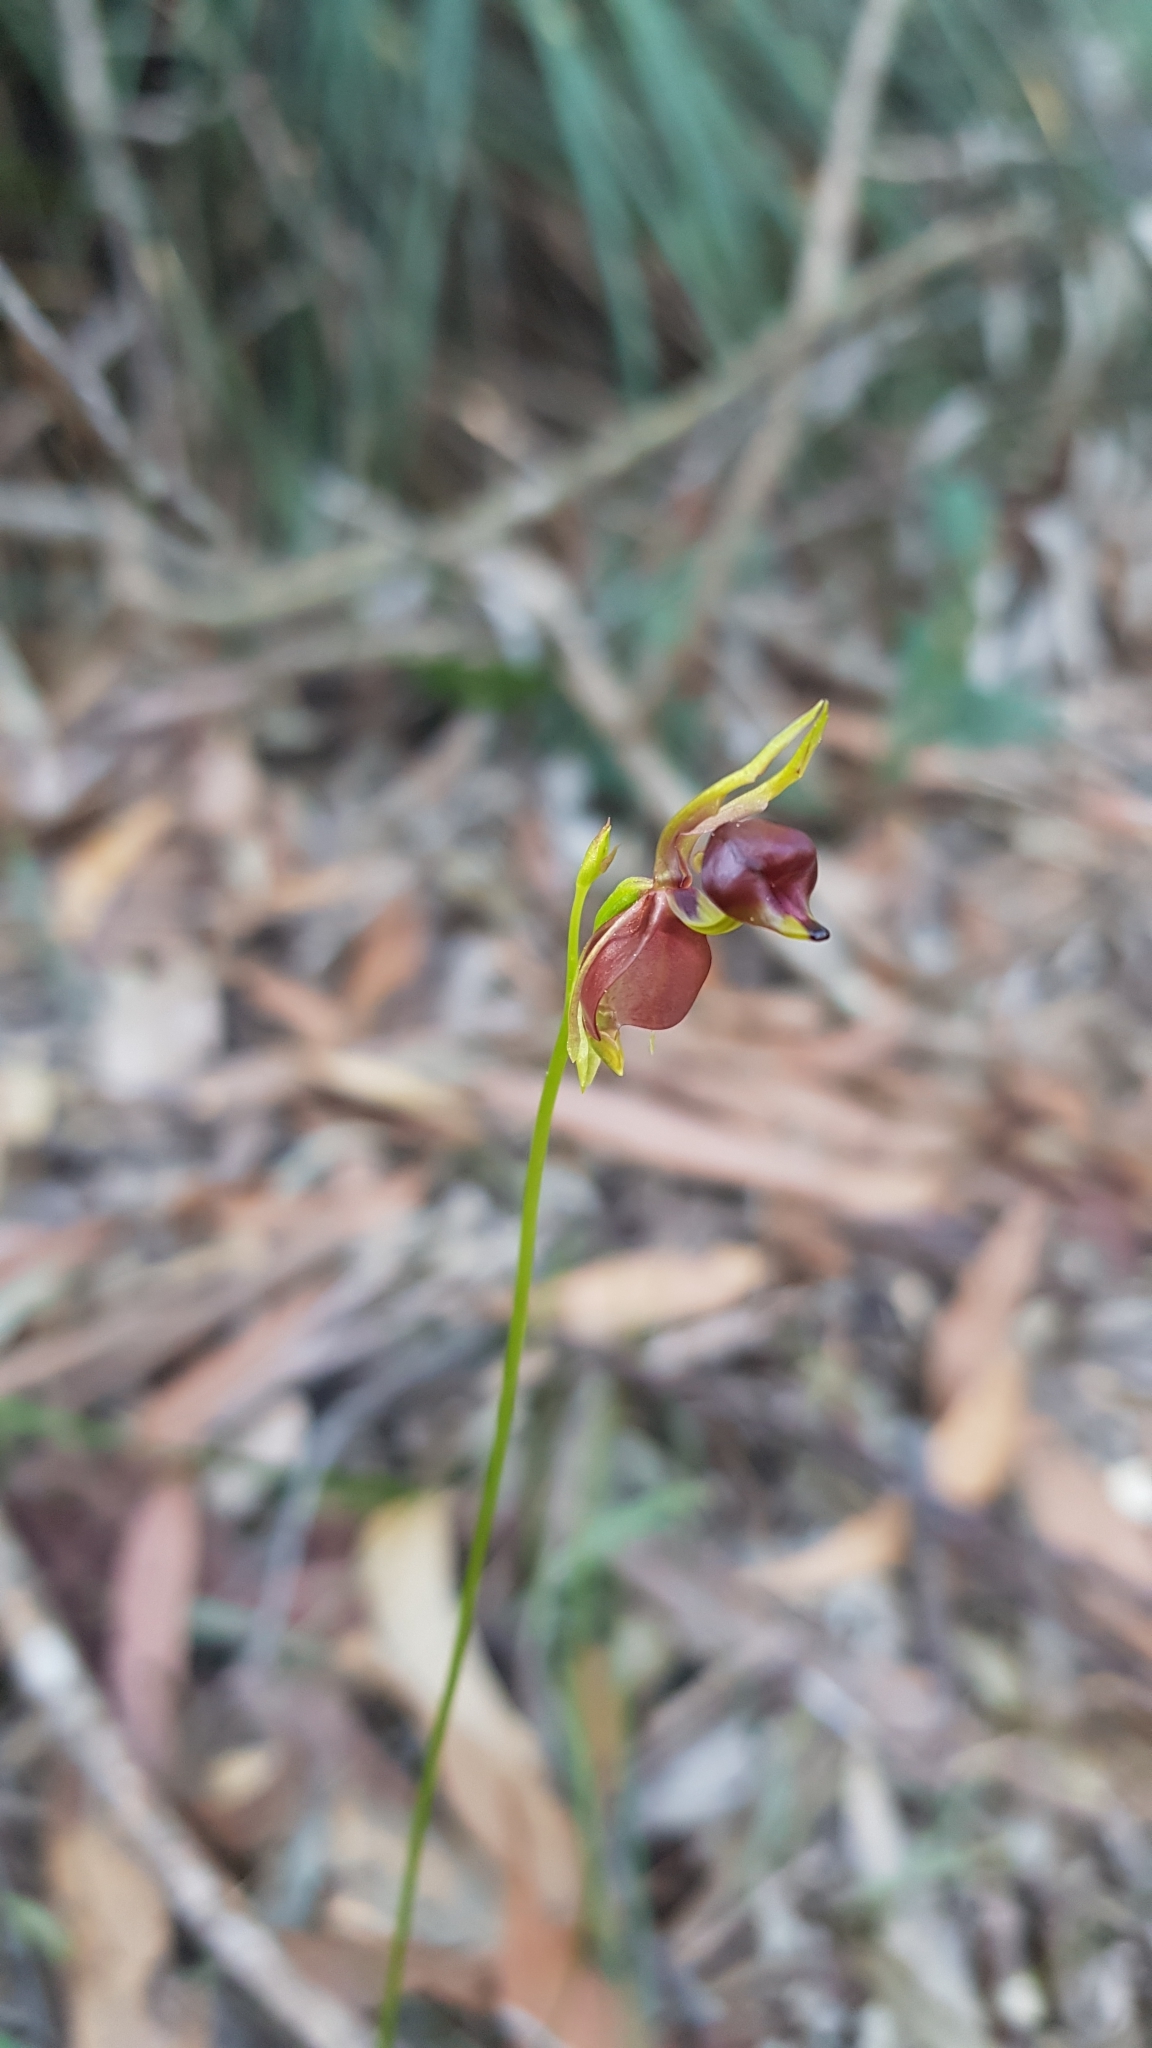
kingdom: Plantae
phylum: Tracheophyta
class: Liliopsida
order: Asparagales
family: Orchidaceae
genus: Caleana
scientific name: Caleana major
